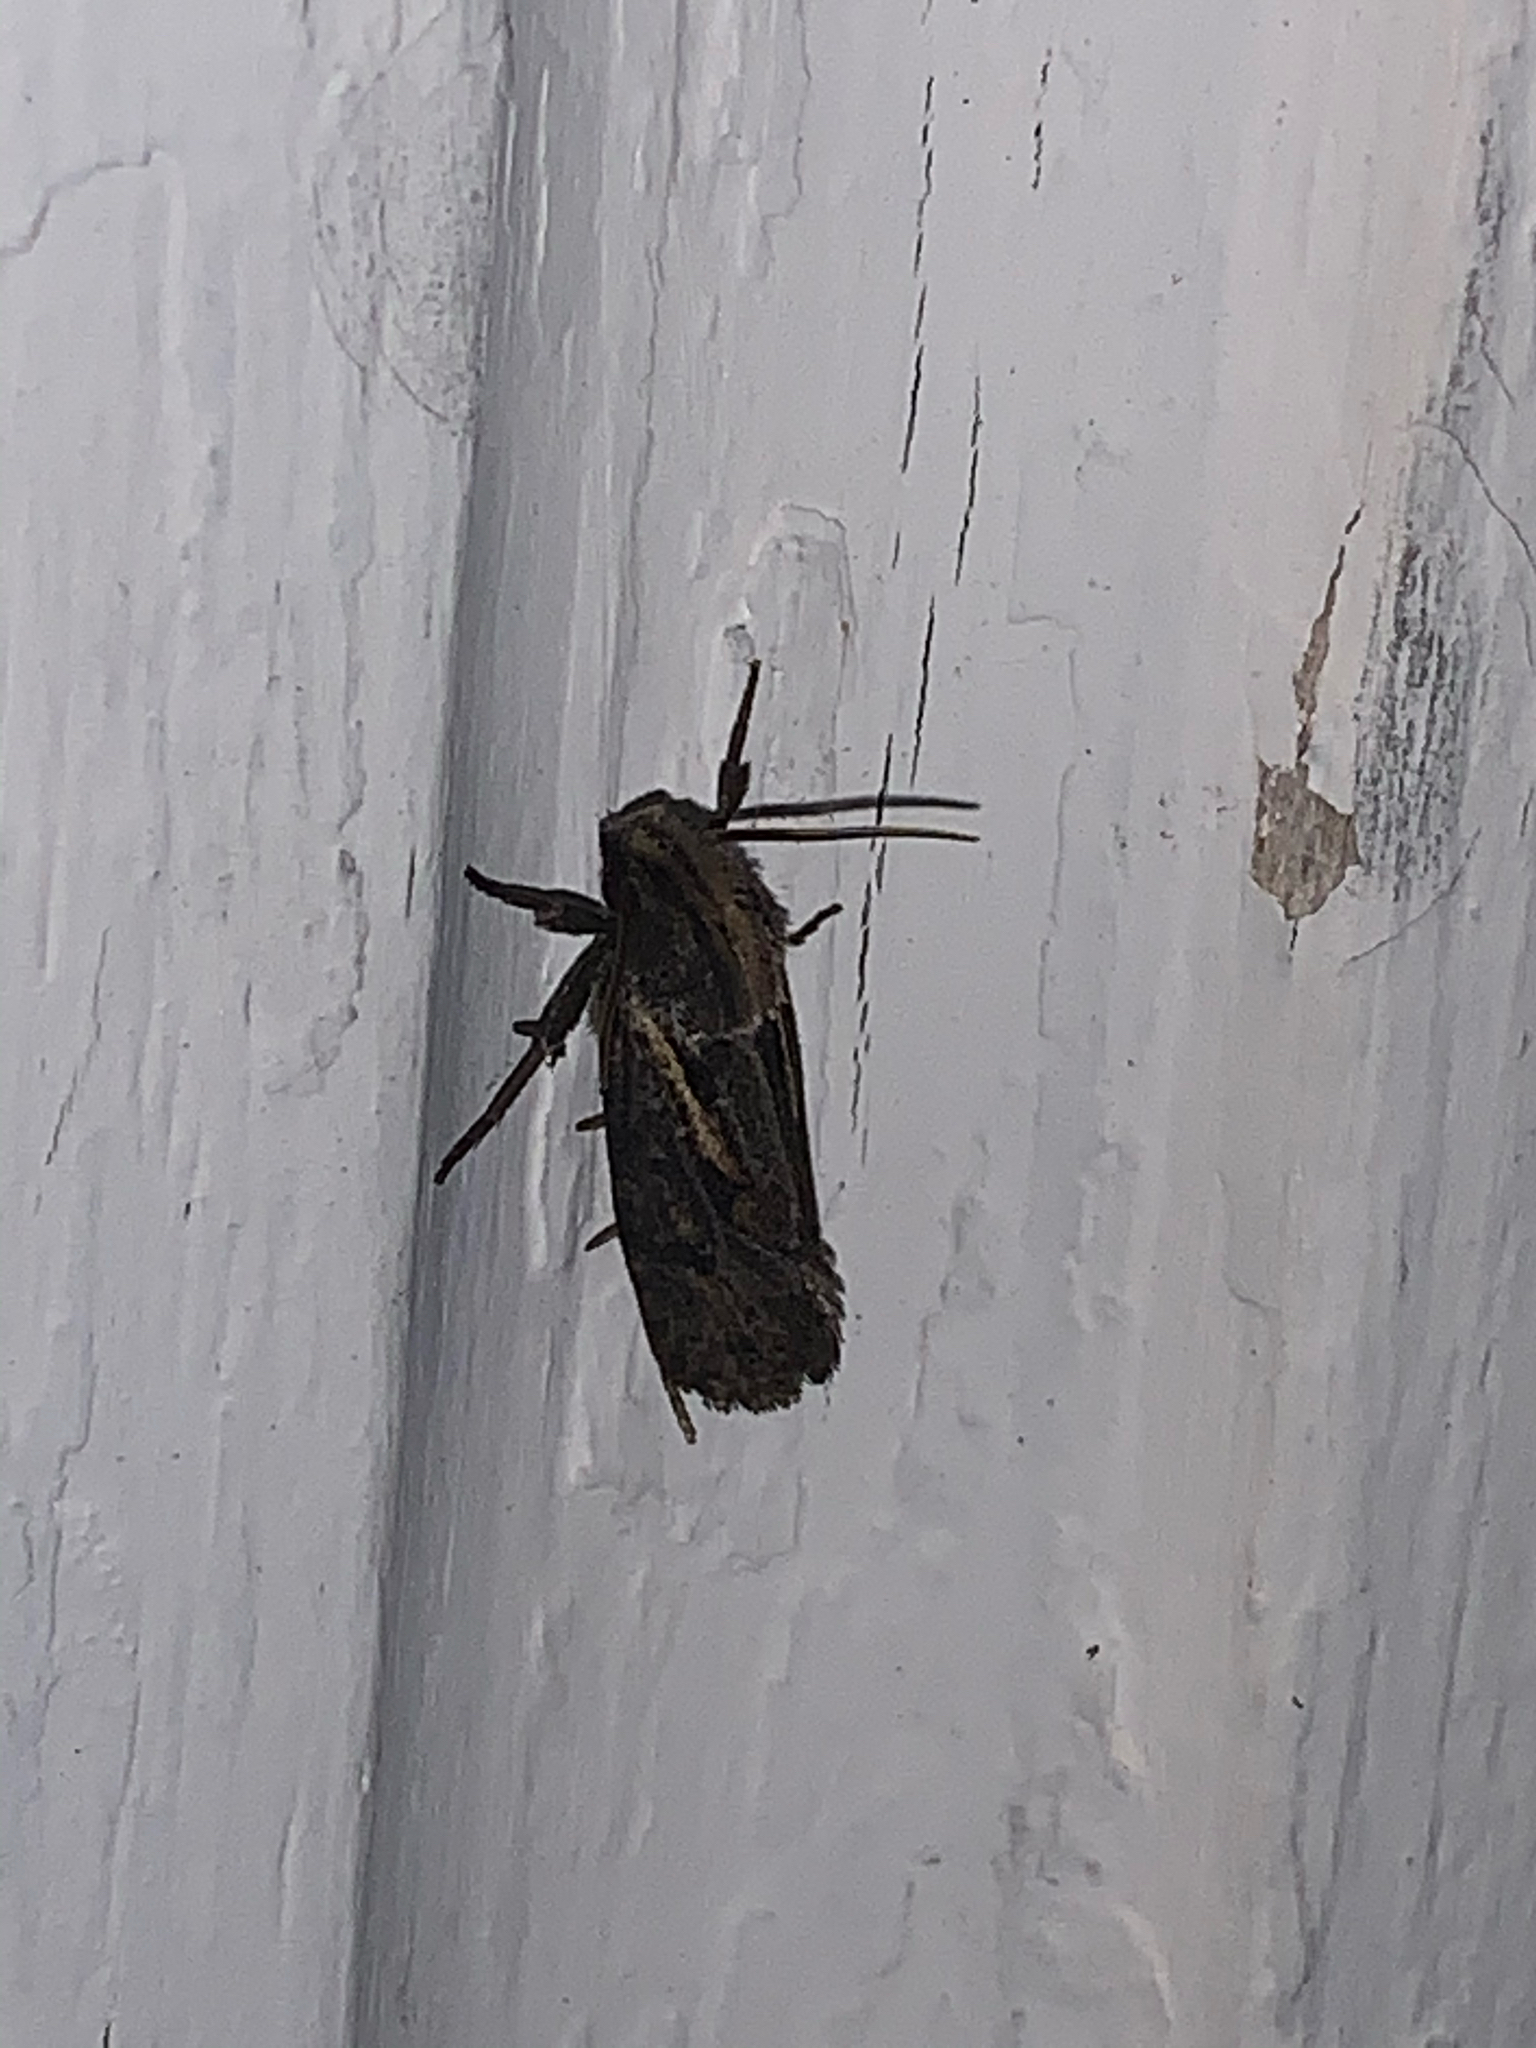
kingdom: Animalia
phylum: Arthropoda
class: Insecta
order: Lepidoptera
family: Tineidae
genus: Acrolophus
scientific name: Acrolophus popeanella
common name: Clemens' grass tubeworm moth
